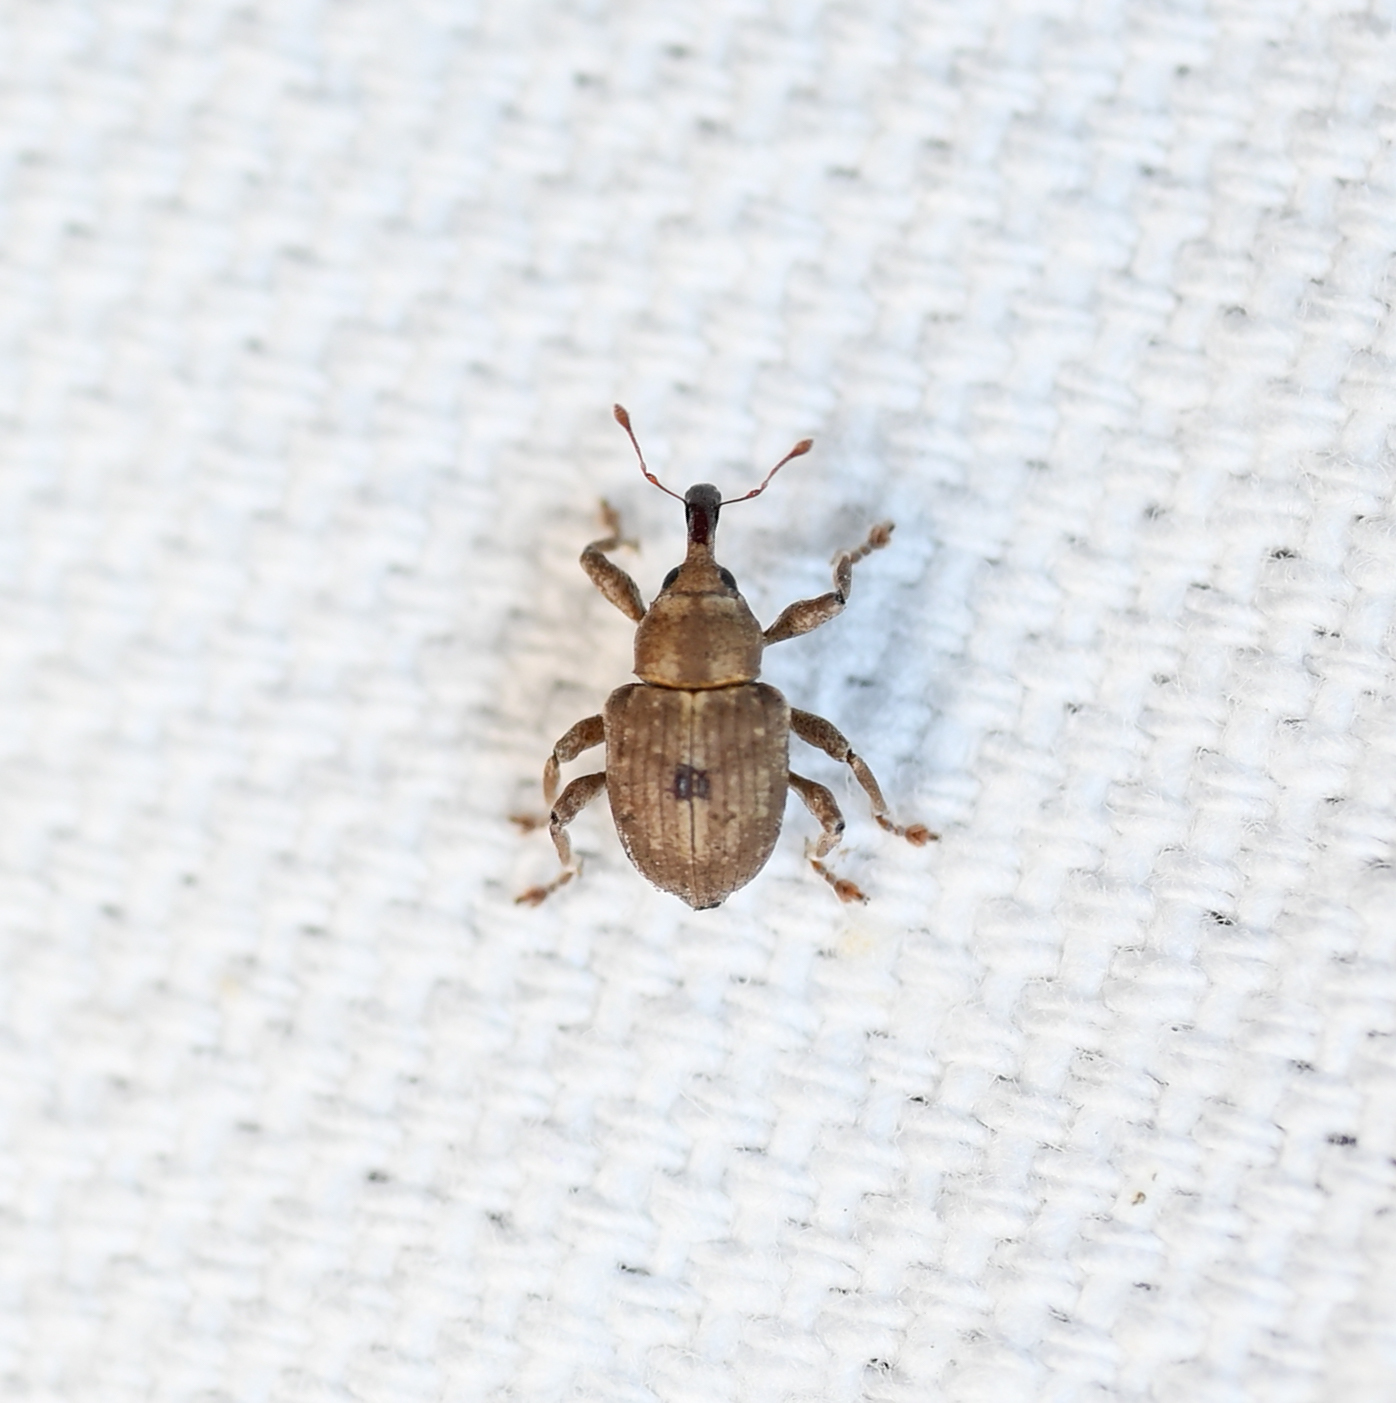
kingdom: Animalia
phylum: Arthropoda
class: Insecta
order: Coleoptera
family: Brachyceridae
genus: Neochetina
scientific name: Neochetina bruchi
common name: Beetle
